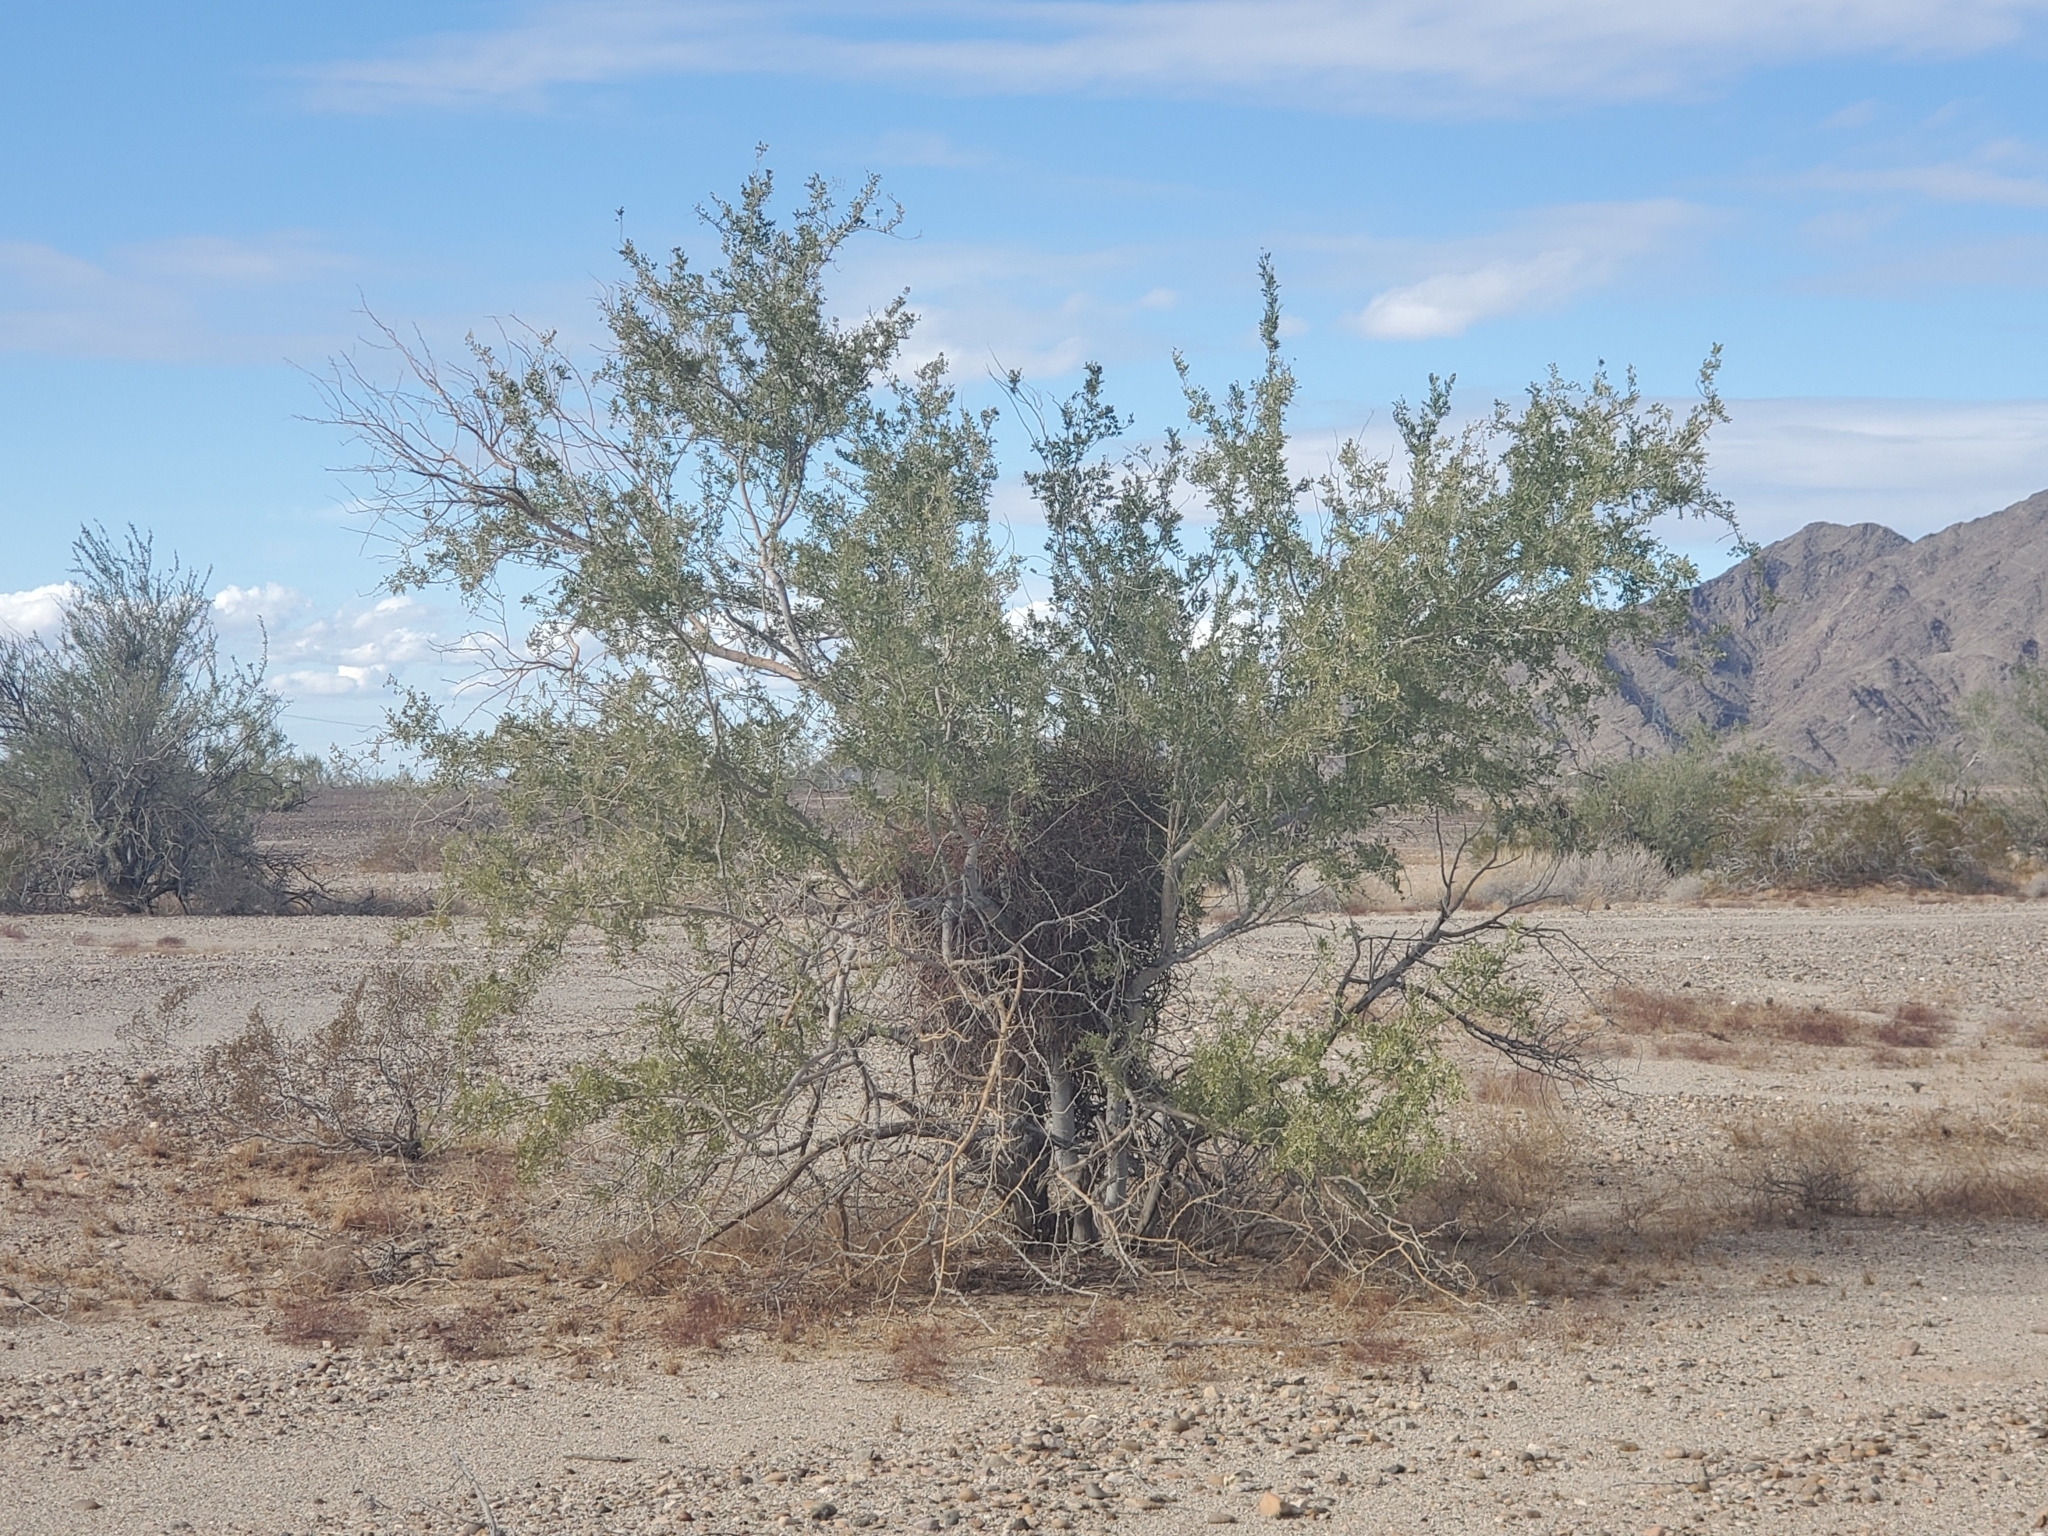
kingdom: Plantae
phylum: Tracheophyta
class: Magnoliopsida
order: Fabales
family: Fabaceae
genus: Olneya
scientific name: Olneya tesota
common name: Desert ironwood
